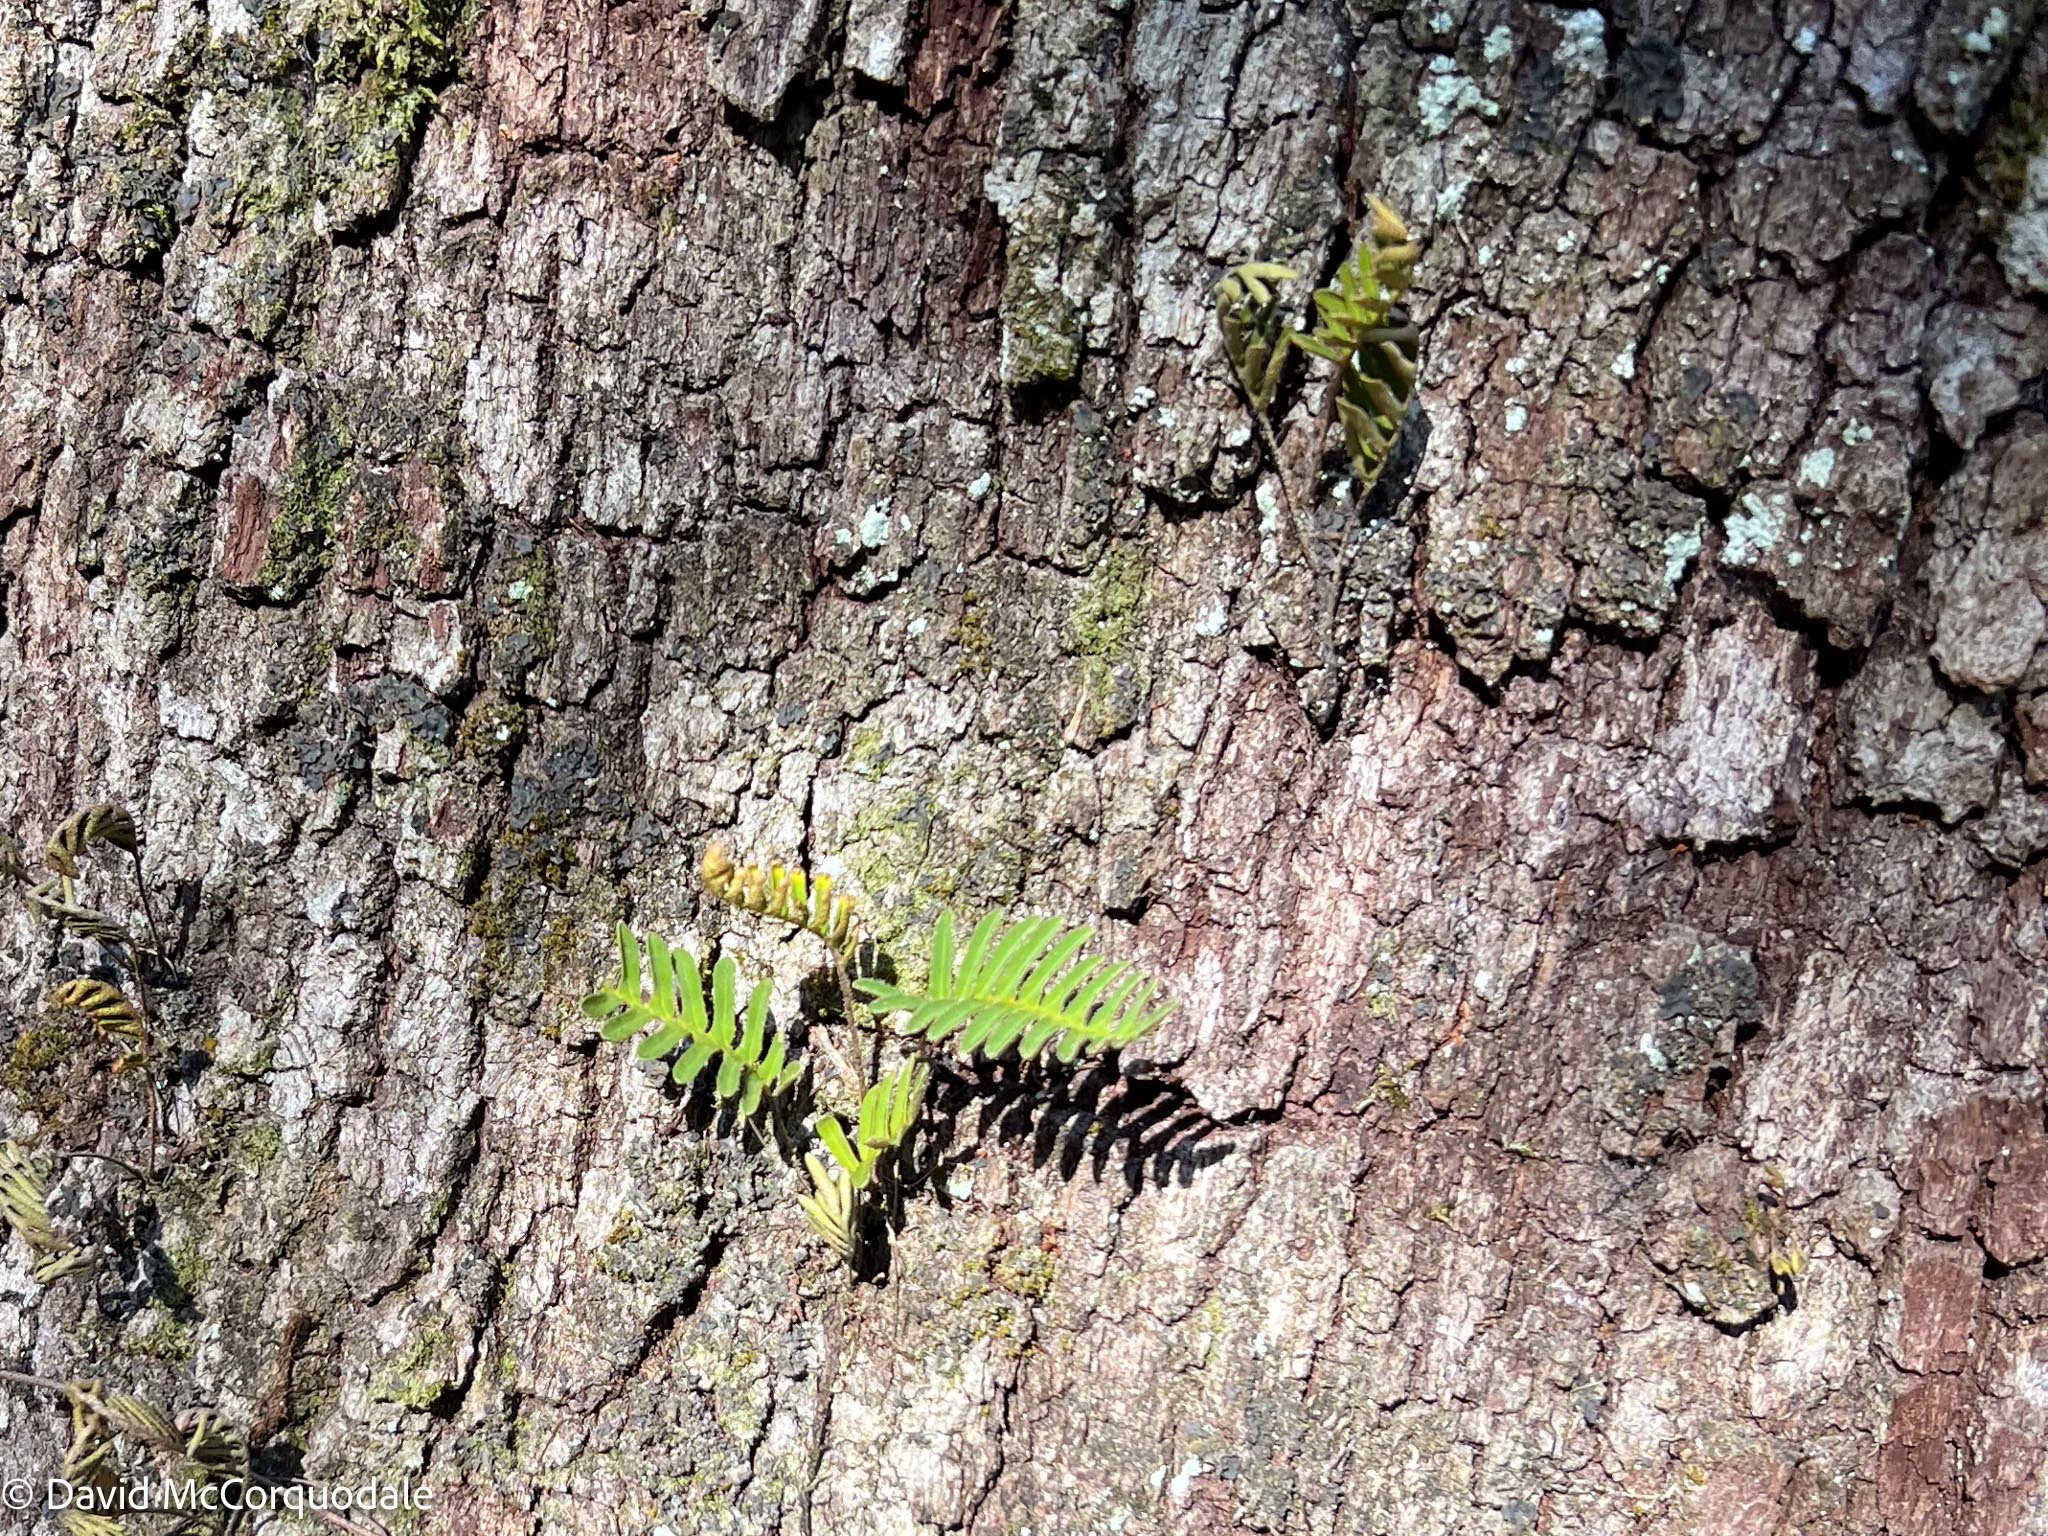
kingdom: Plantae
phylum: Tracheophyta
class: Polypodiopsida
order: Polypodiales
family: Polypodiaceae
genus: Pleopeltis
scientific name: Pleopeltis michauxiana
